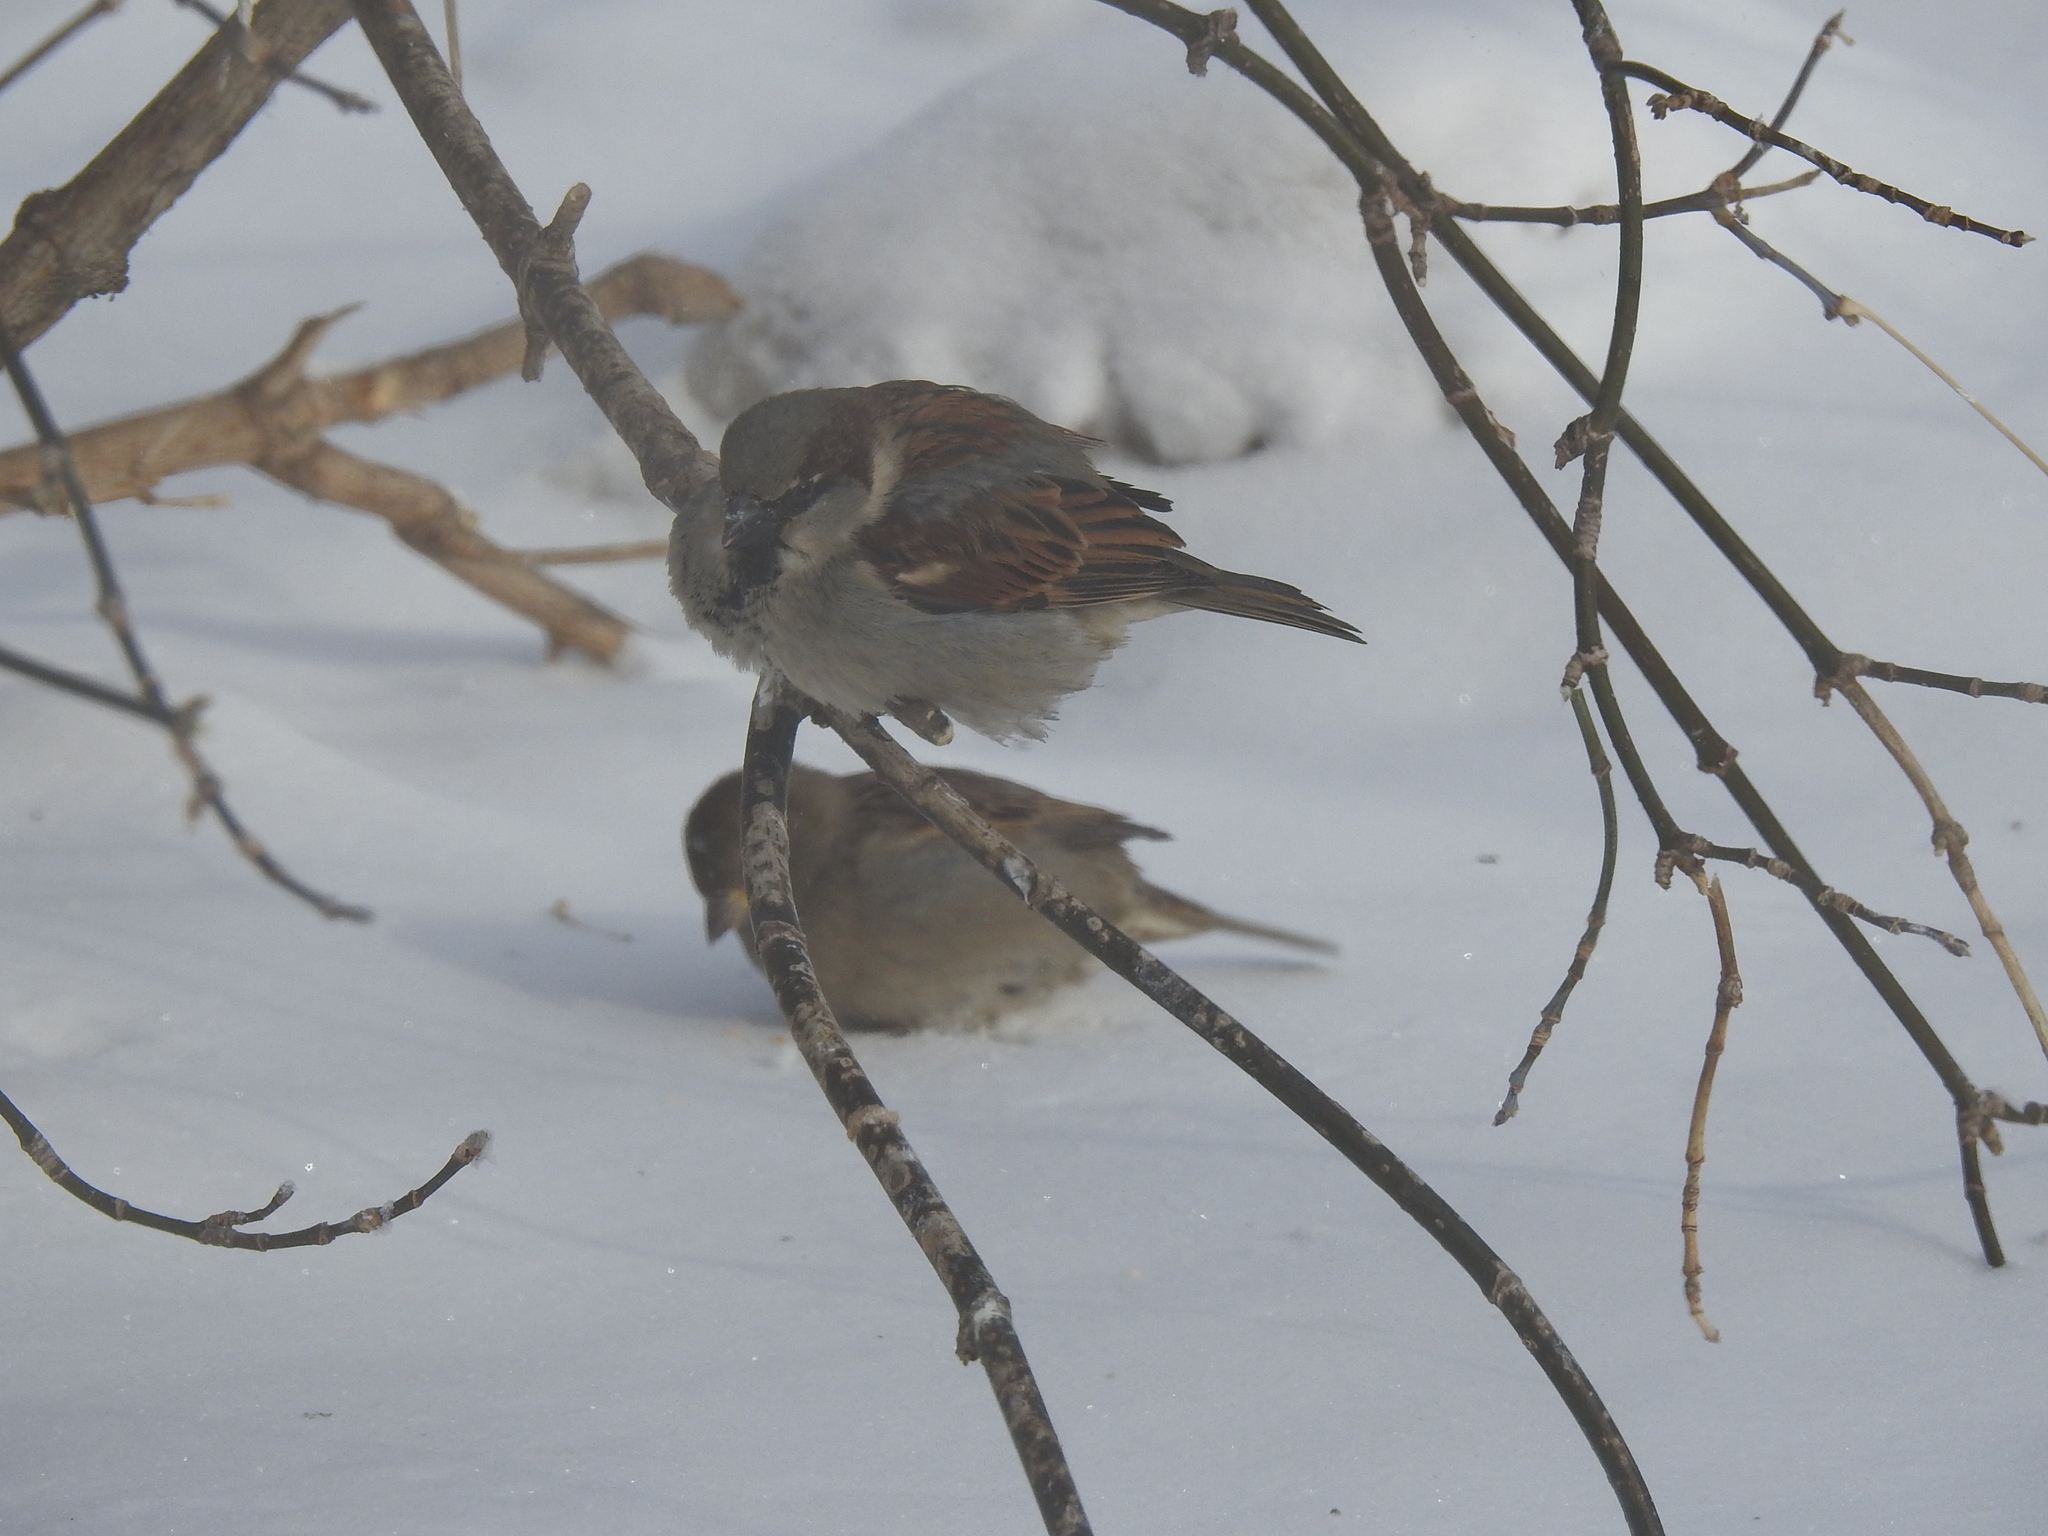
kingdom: Animalia
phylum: Chordata
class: Aves
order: Passeriformes
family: Passeridae
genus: Passer
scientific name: Passer domesticus
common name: House sparrow
